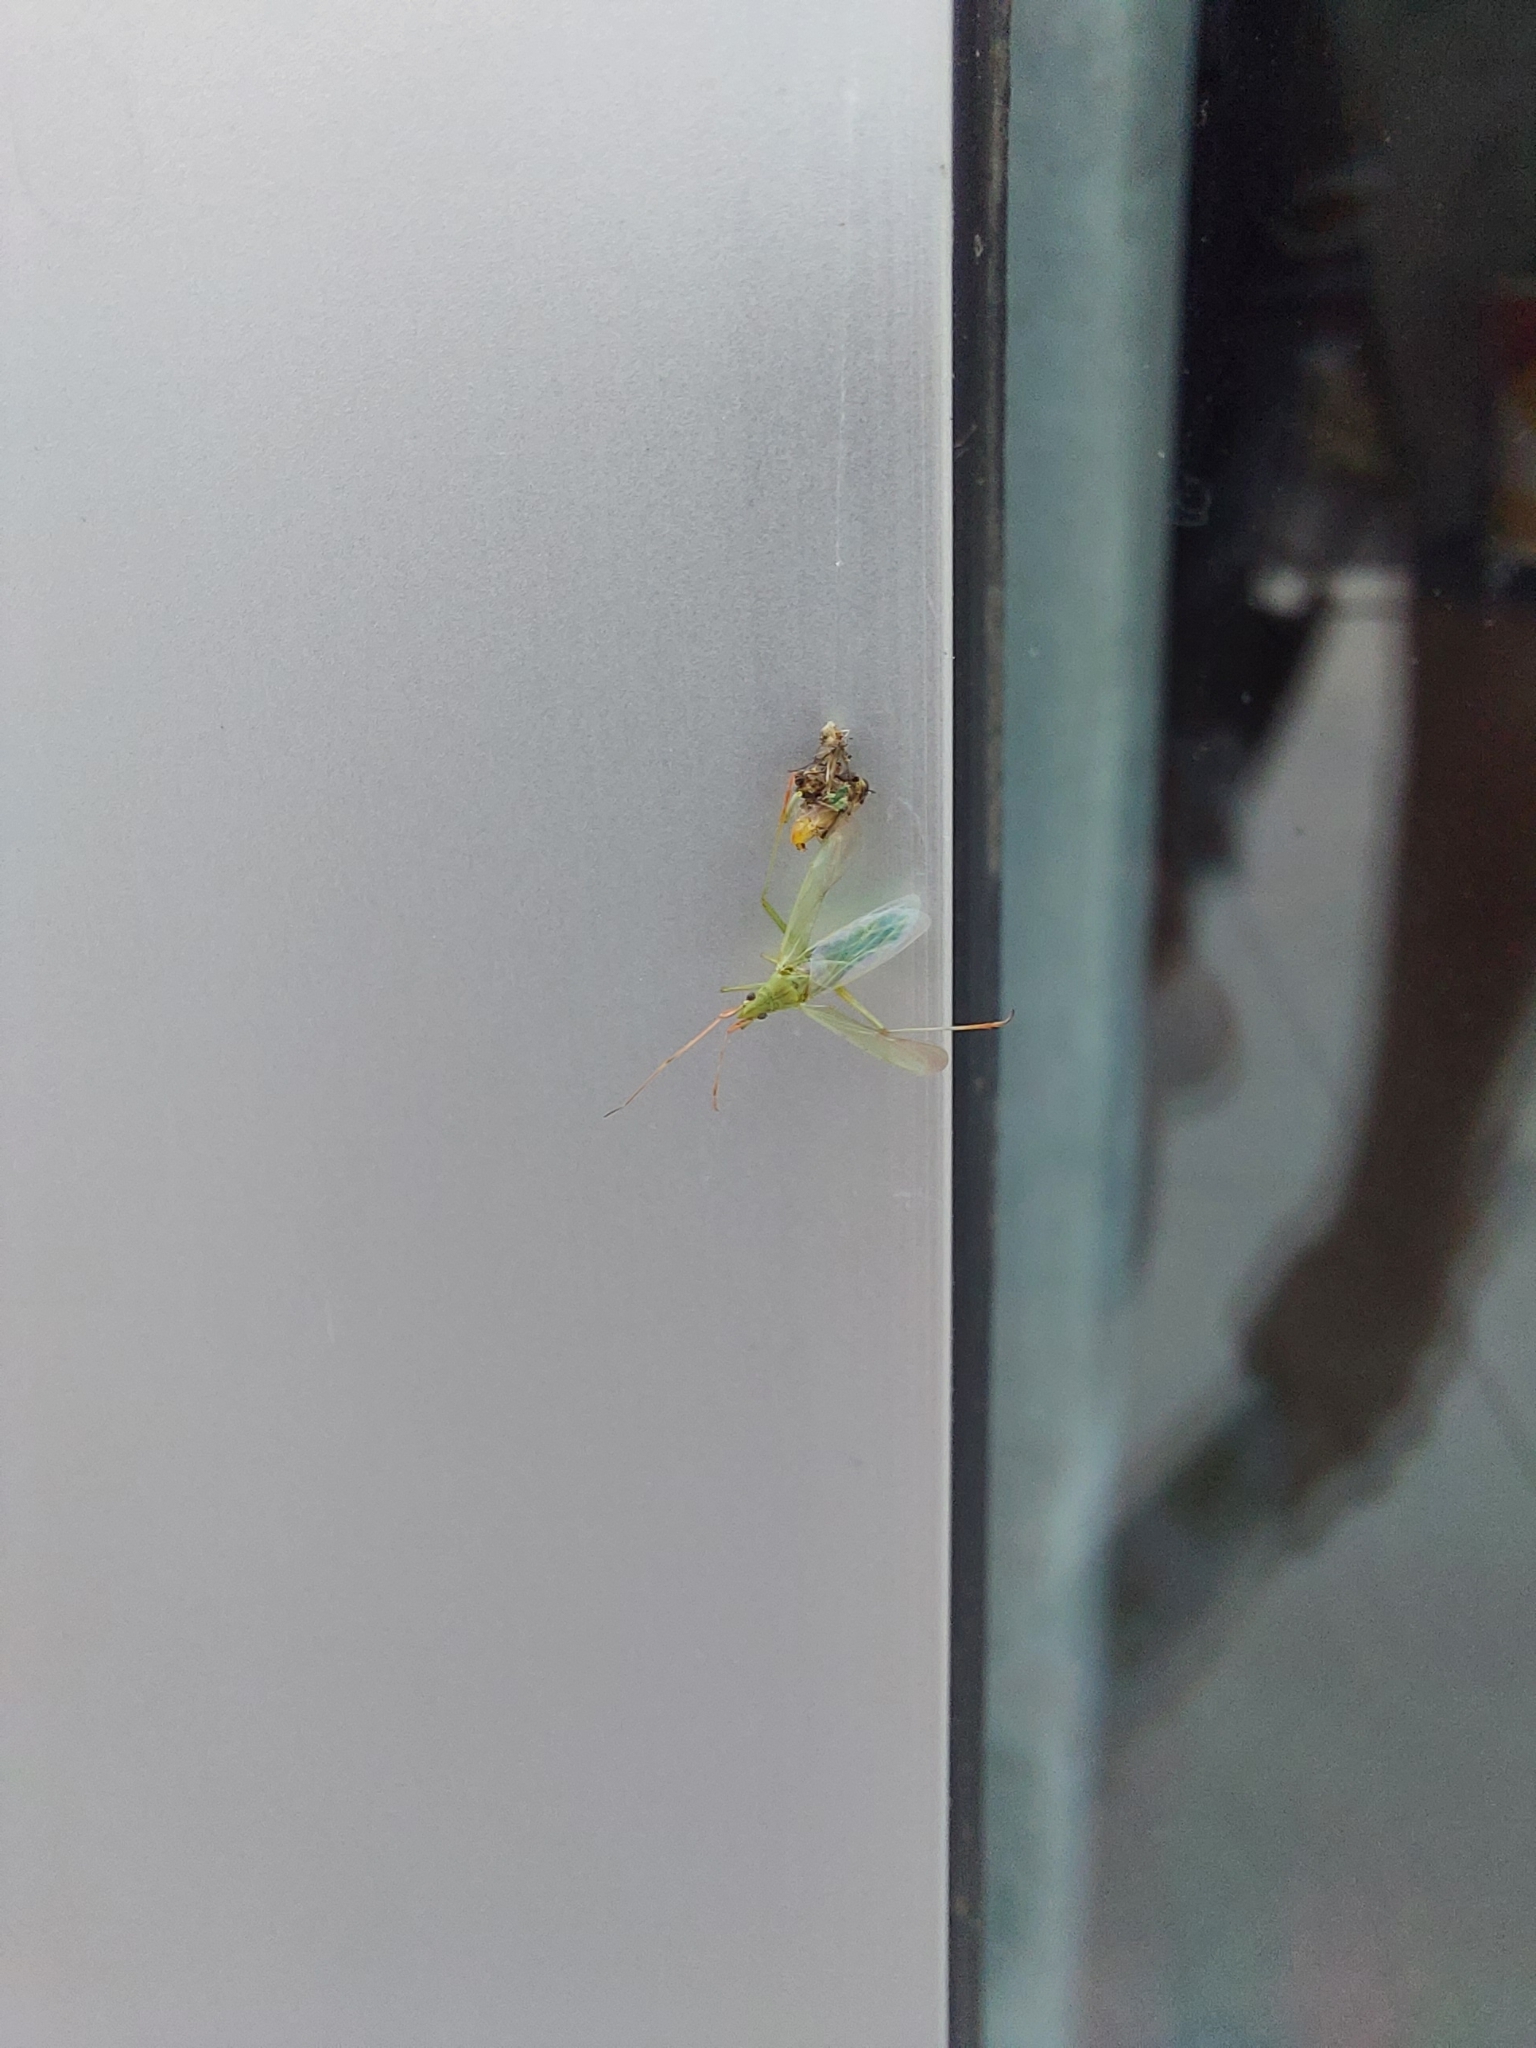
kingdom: Animalia
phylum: Arthropoda
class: Insecta
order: Hemiptera
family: Miridae
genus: Trigonotylus
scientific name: Trigonotylus caelestialium
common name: Rice leaf bug
